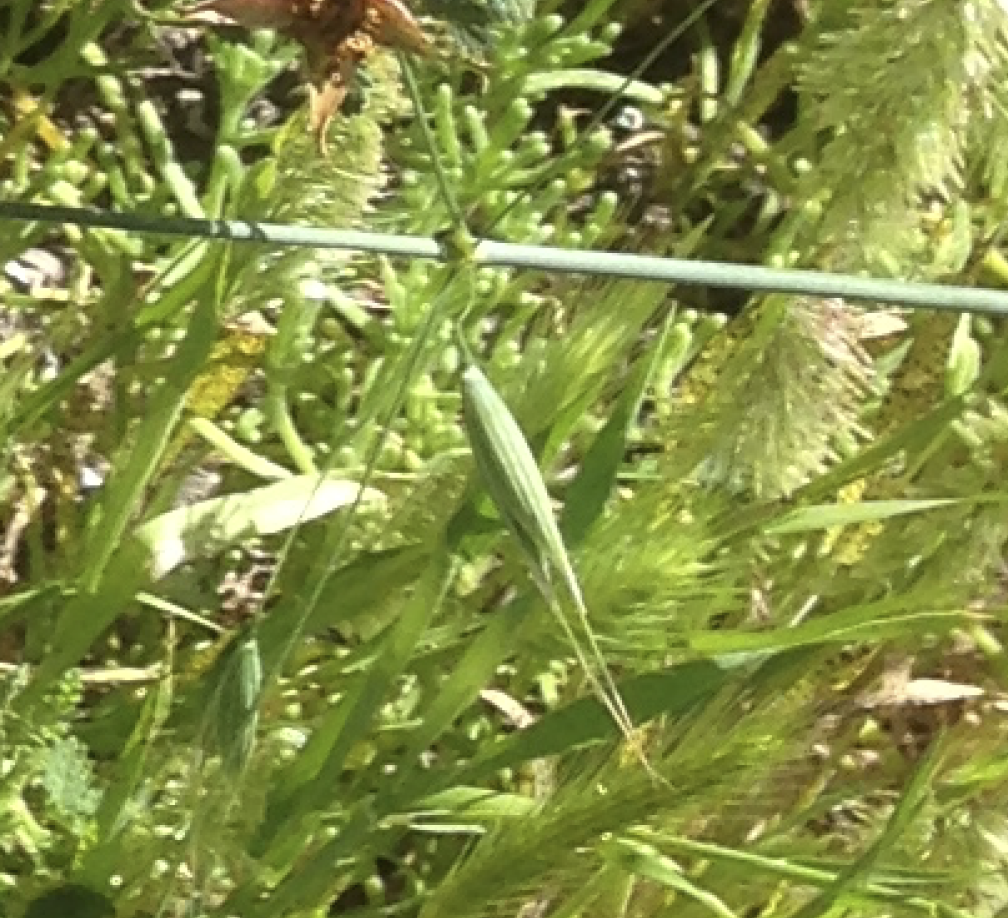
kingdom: Plantae
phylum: Tracheophyta
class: Liliopsida
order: Poales
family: Poaceae
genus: Avena
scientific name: Avena fatua
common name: Wild oat
